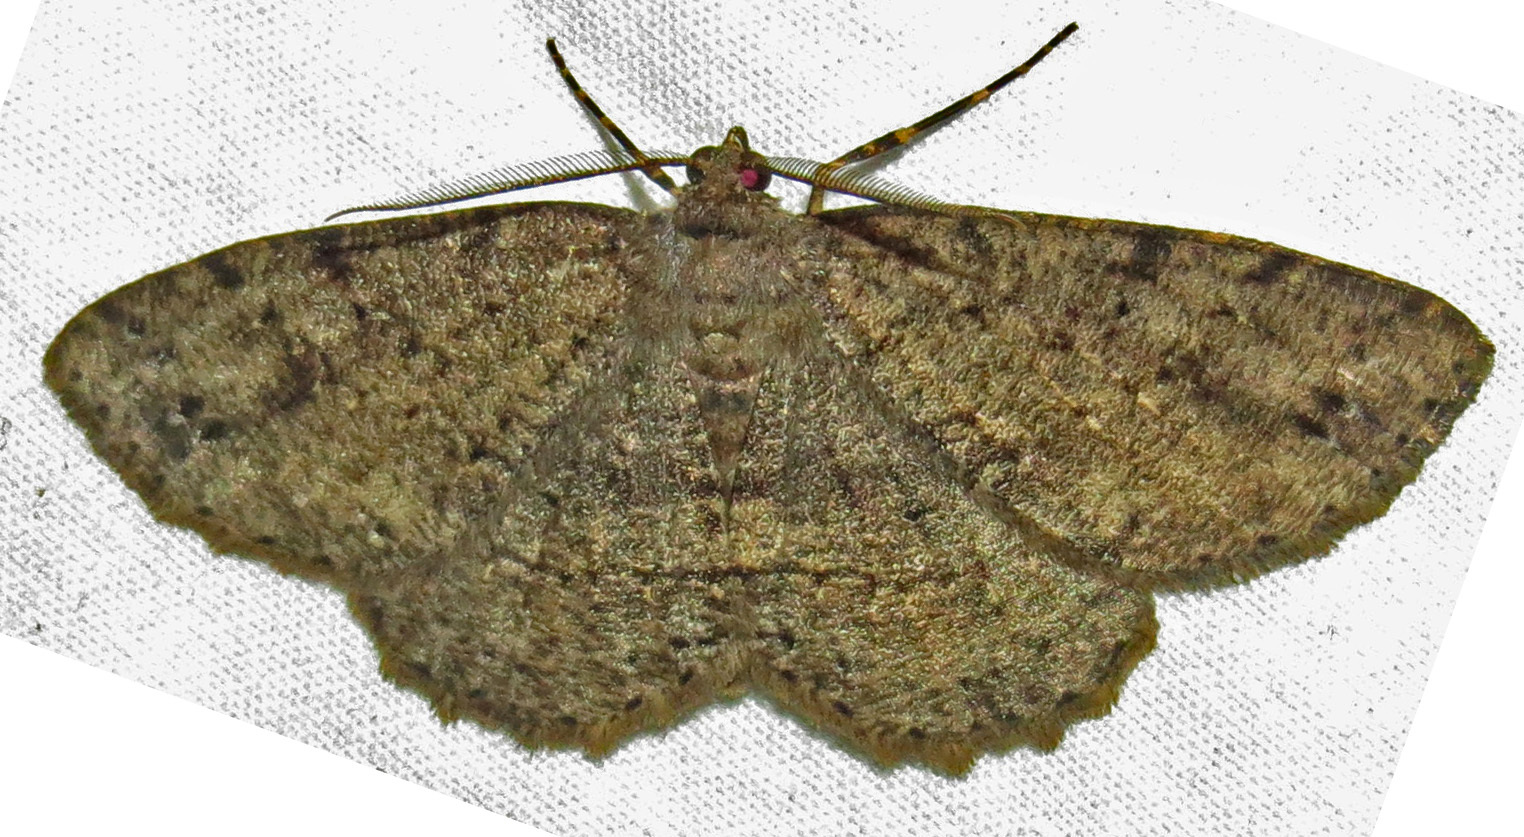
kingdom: Animalia
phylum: Arthropoda
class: Insecta
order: Lepidoptera
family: Geometridae
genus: Melanolophia
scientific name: Melanolophia canadaria
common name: Canadian melanolophia
